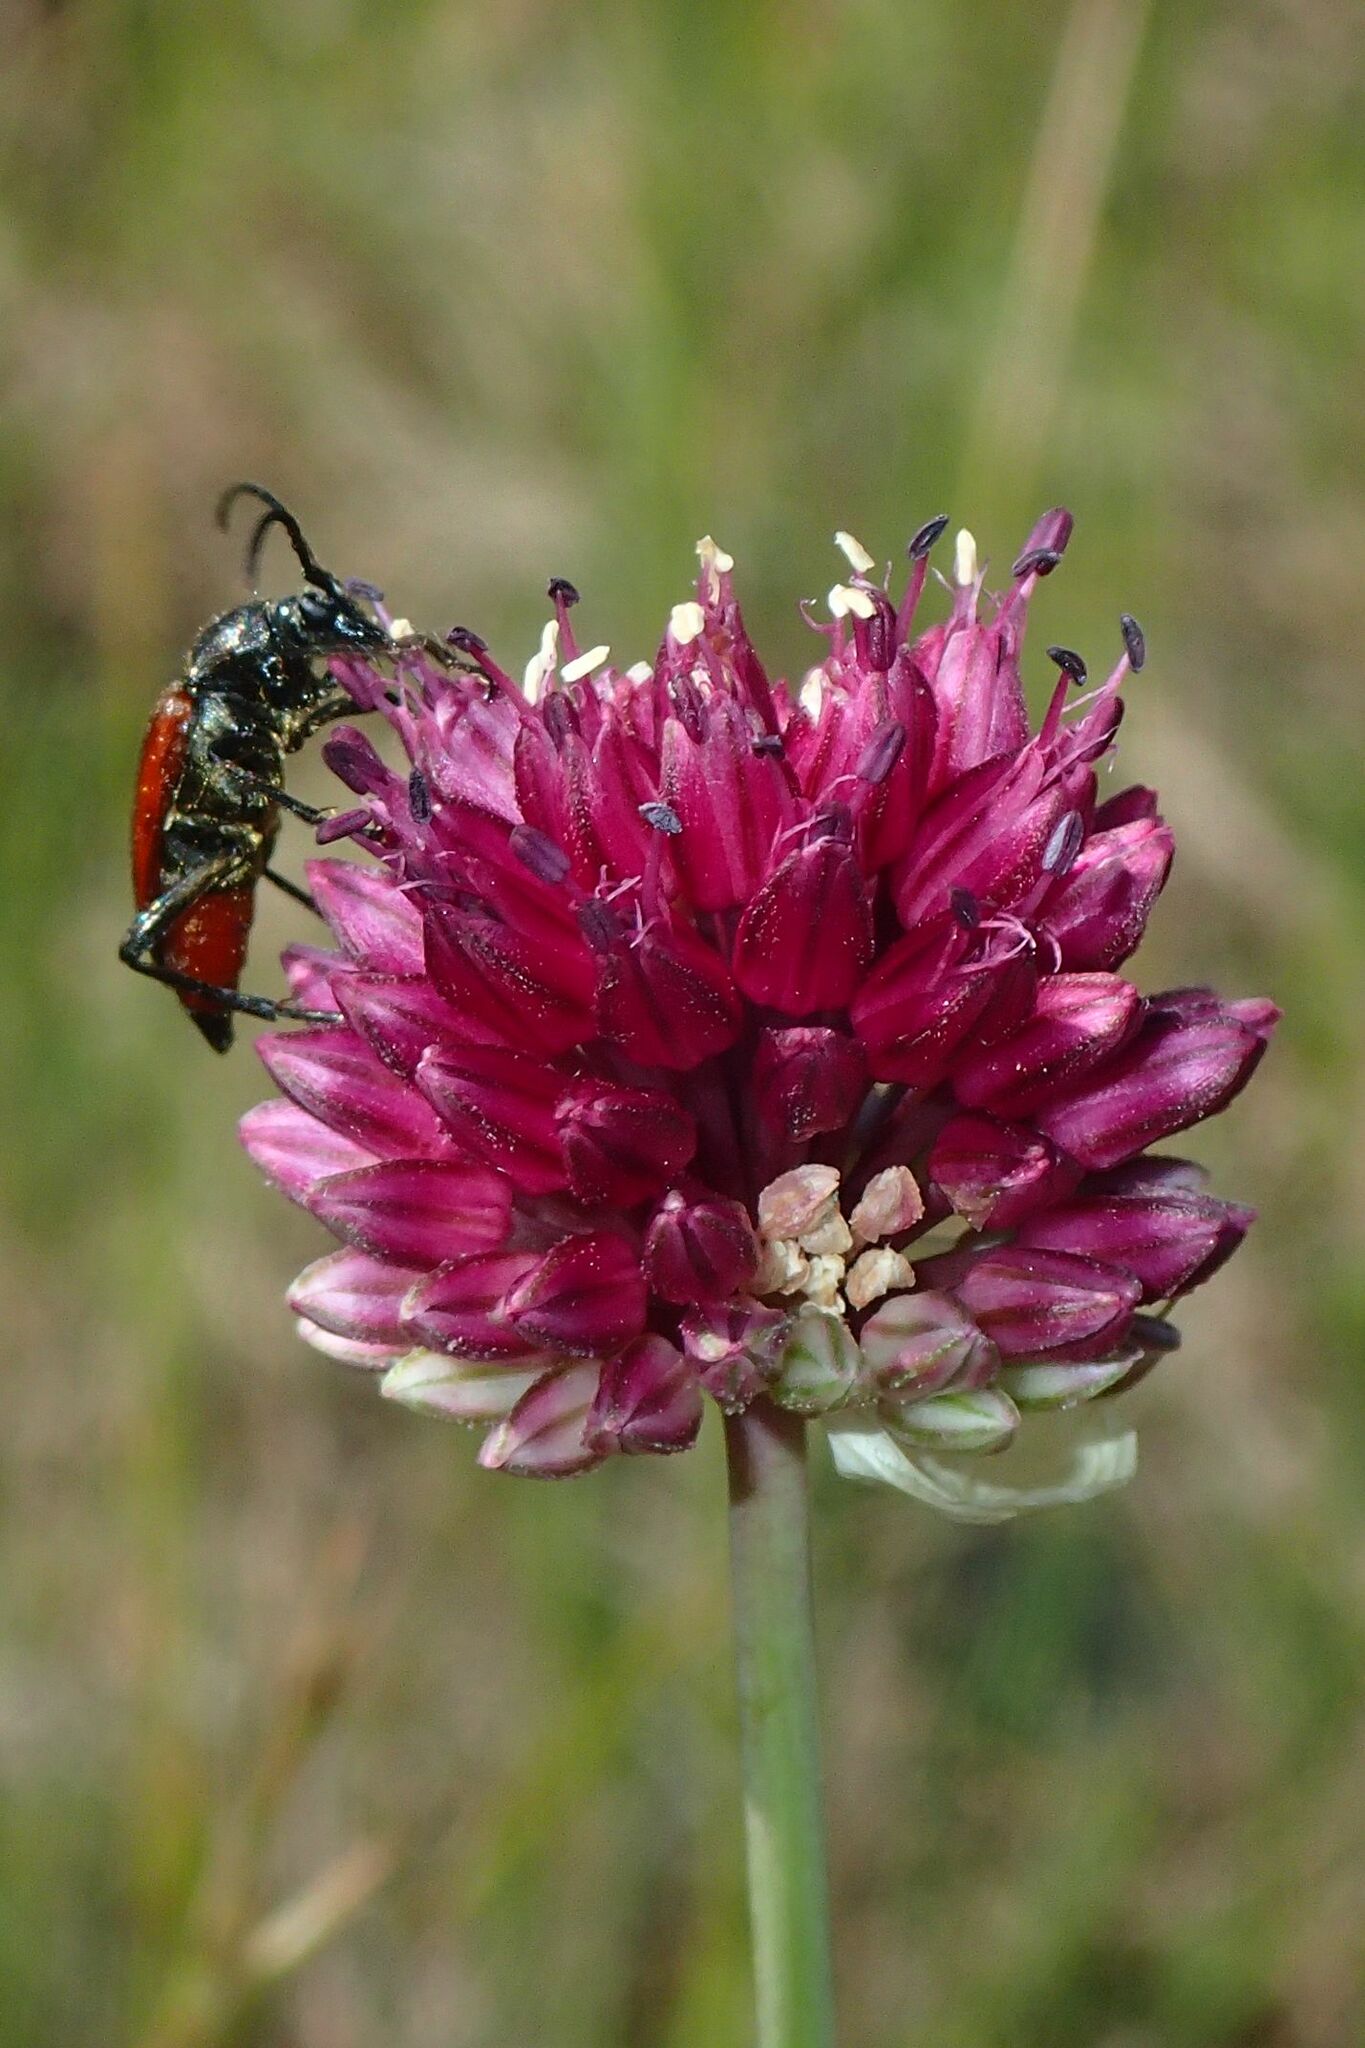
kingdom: Plantae
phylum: Tracheophyta
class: Liliopsida
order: Asparagales
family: Amaryllidaceae
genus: Allium
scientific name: Allium sphaerocephalon
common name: Round-headed leek
